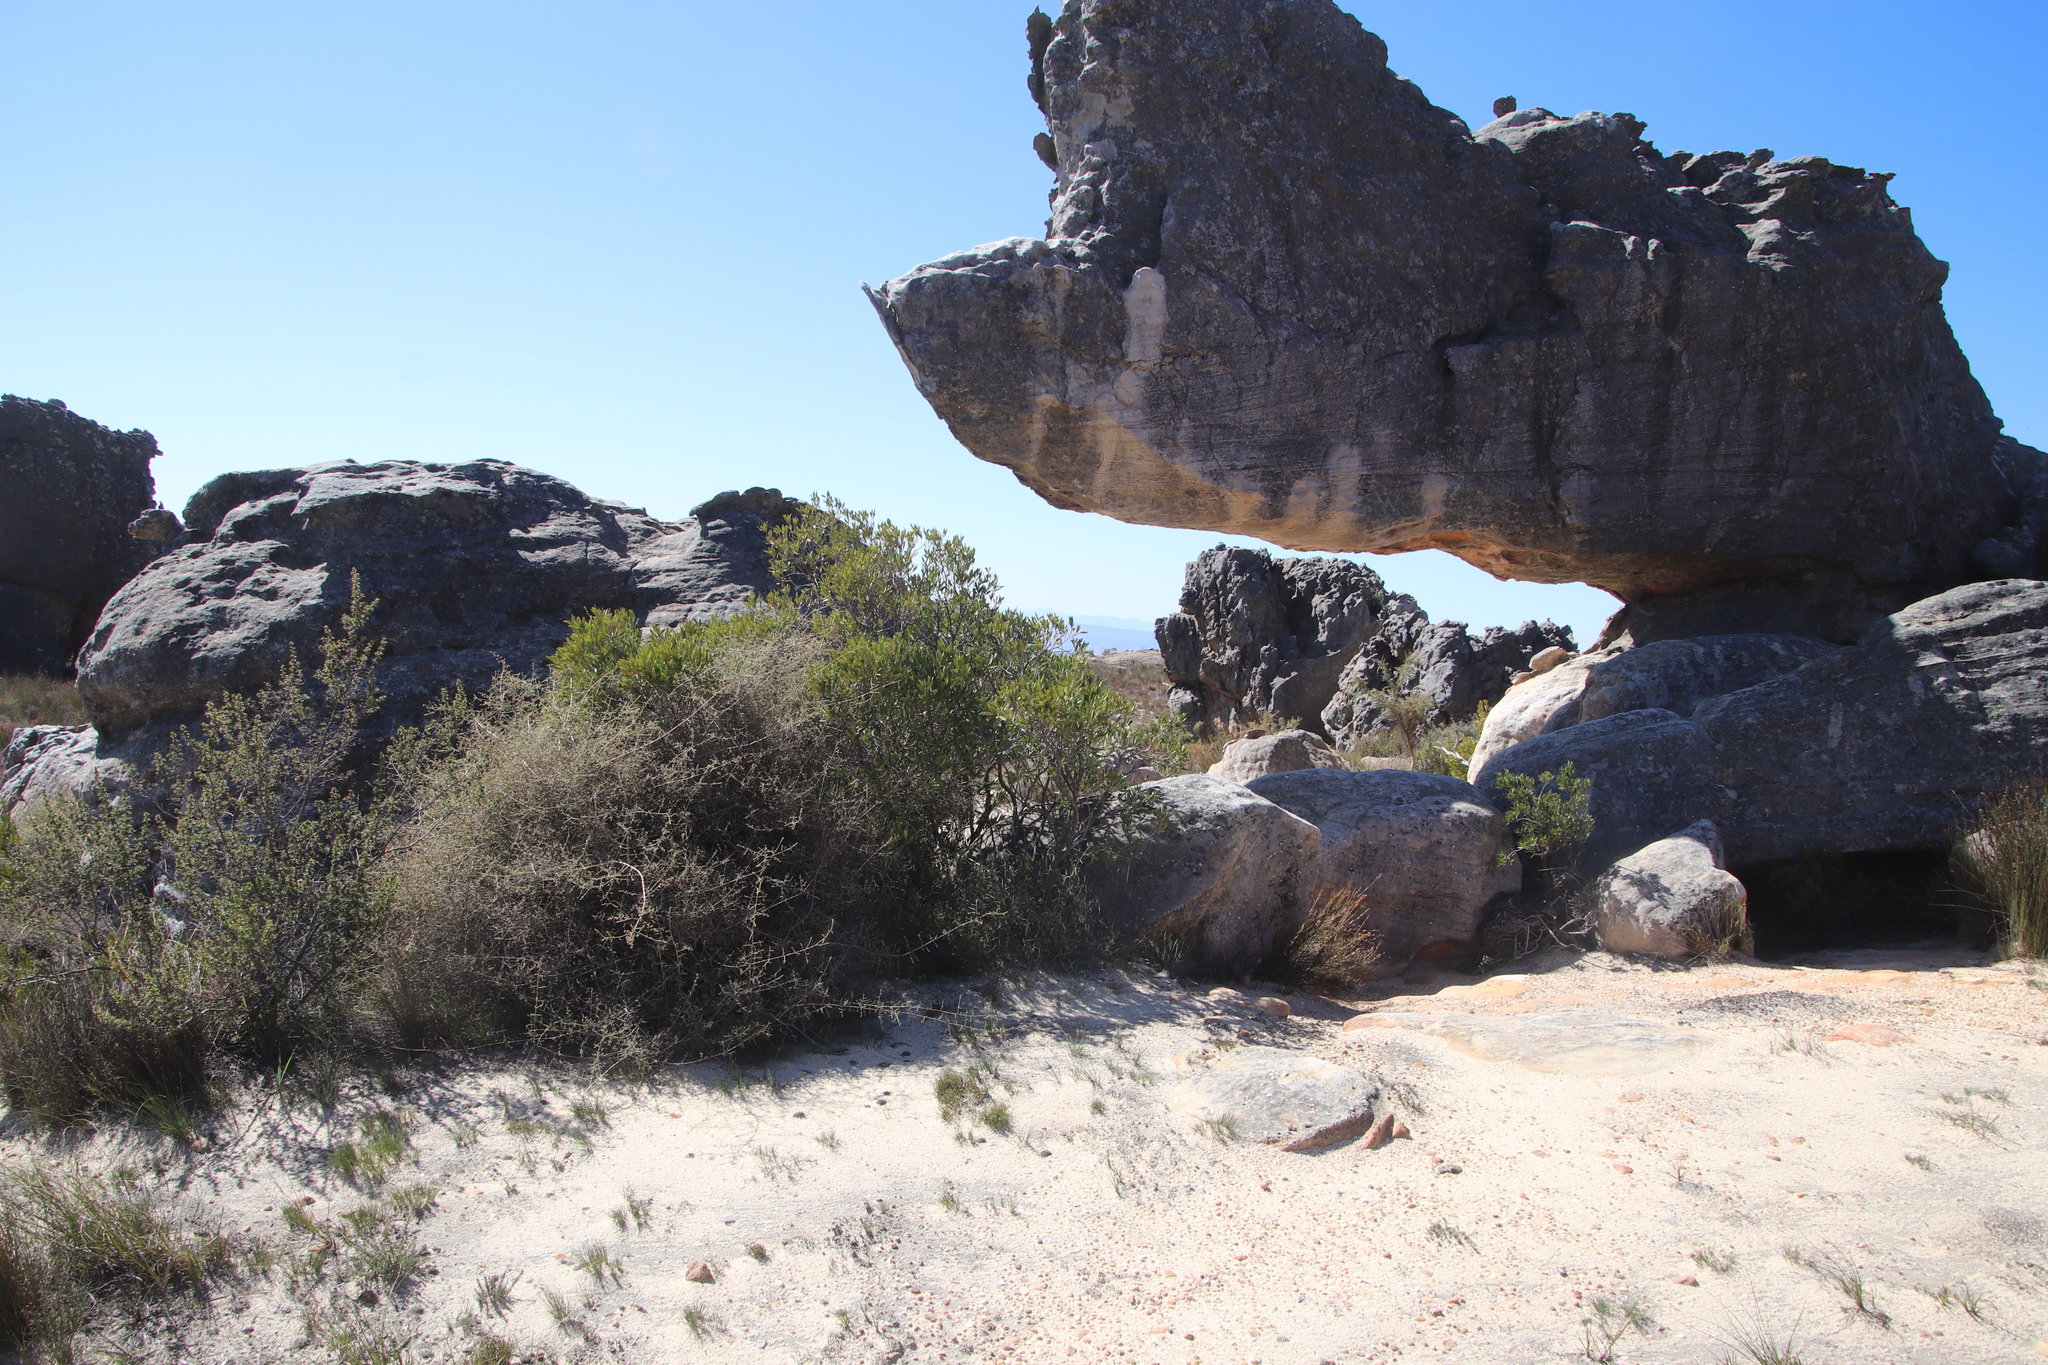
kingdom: Plantae
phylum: Tracheophyta
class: Magnoliopsida
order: Celastrales
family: Celastraceae
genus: Gymnosporia
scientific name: Gymnosporia laurina
